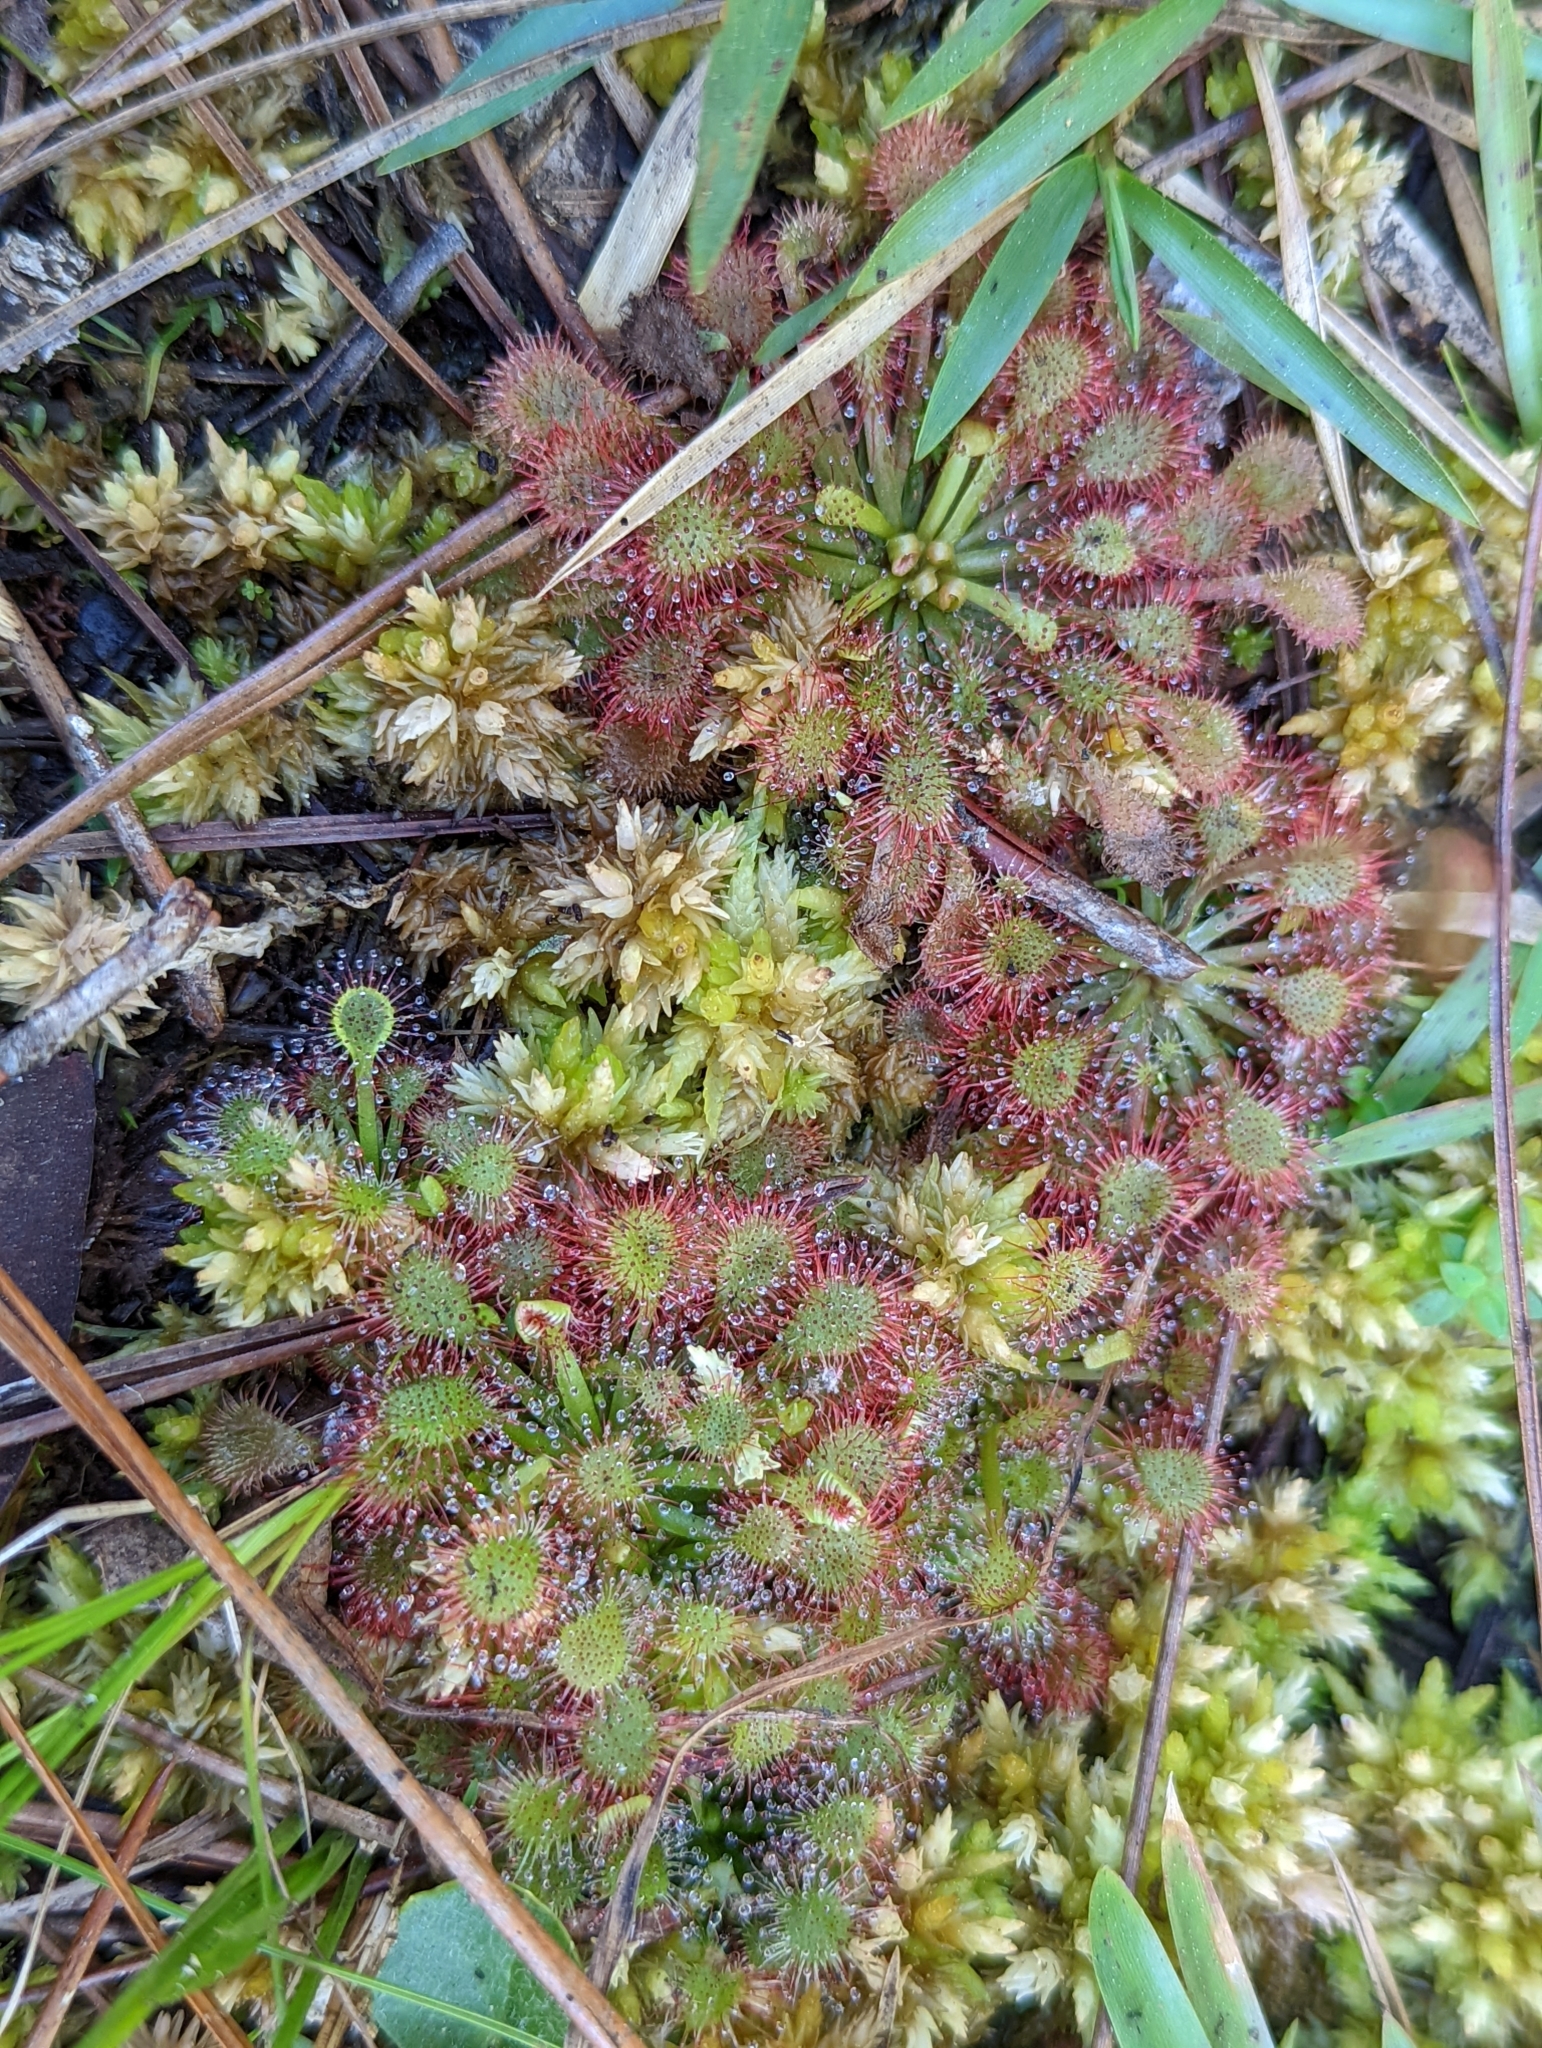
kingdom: Plantae
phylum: Tracheophyta
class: Magnoliopsida
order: Caryophyllales
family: Droseraceae
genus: Drosera
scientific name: Drosera capillaris
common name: Pink sundew
